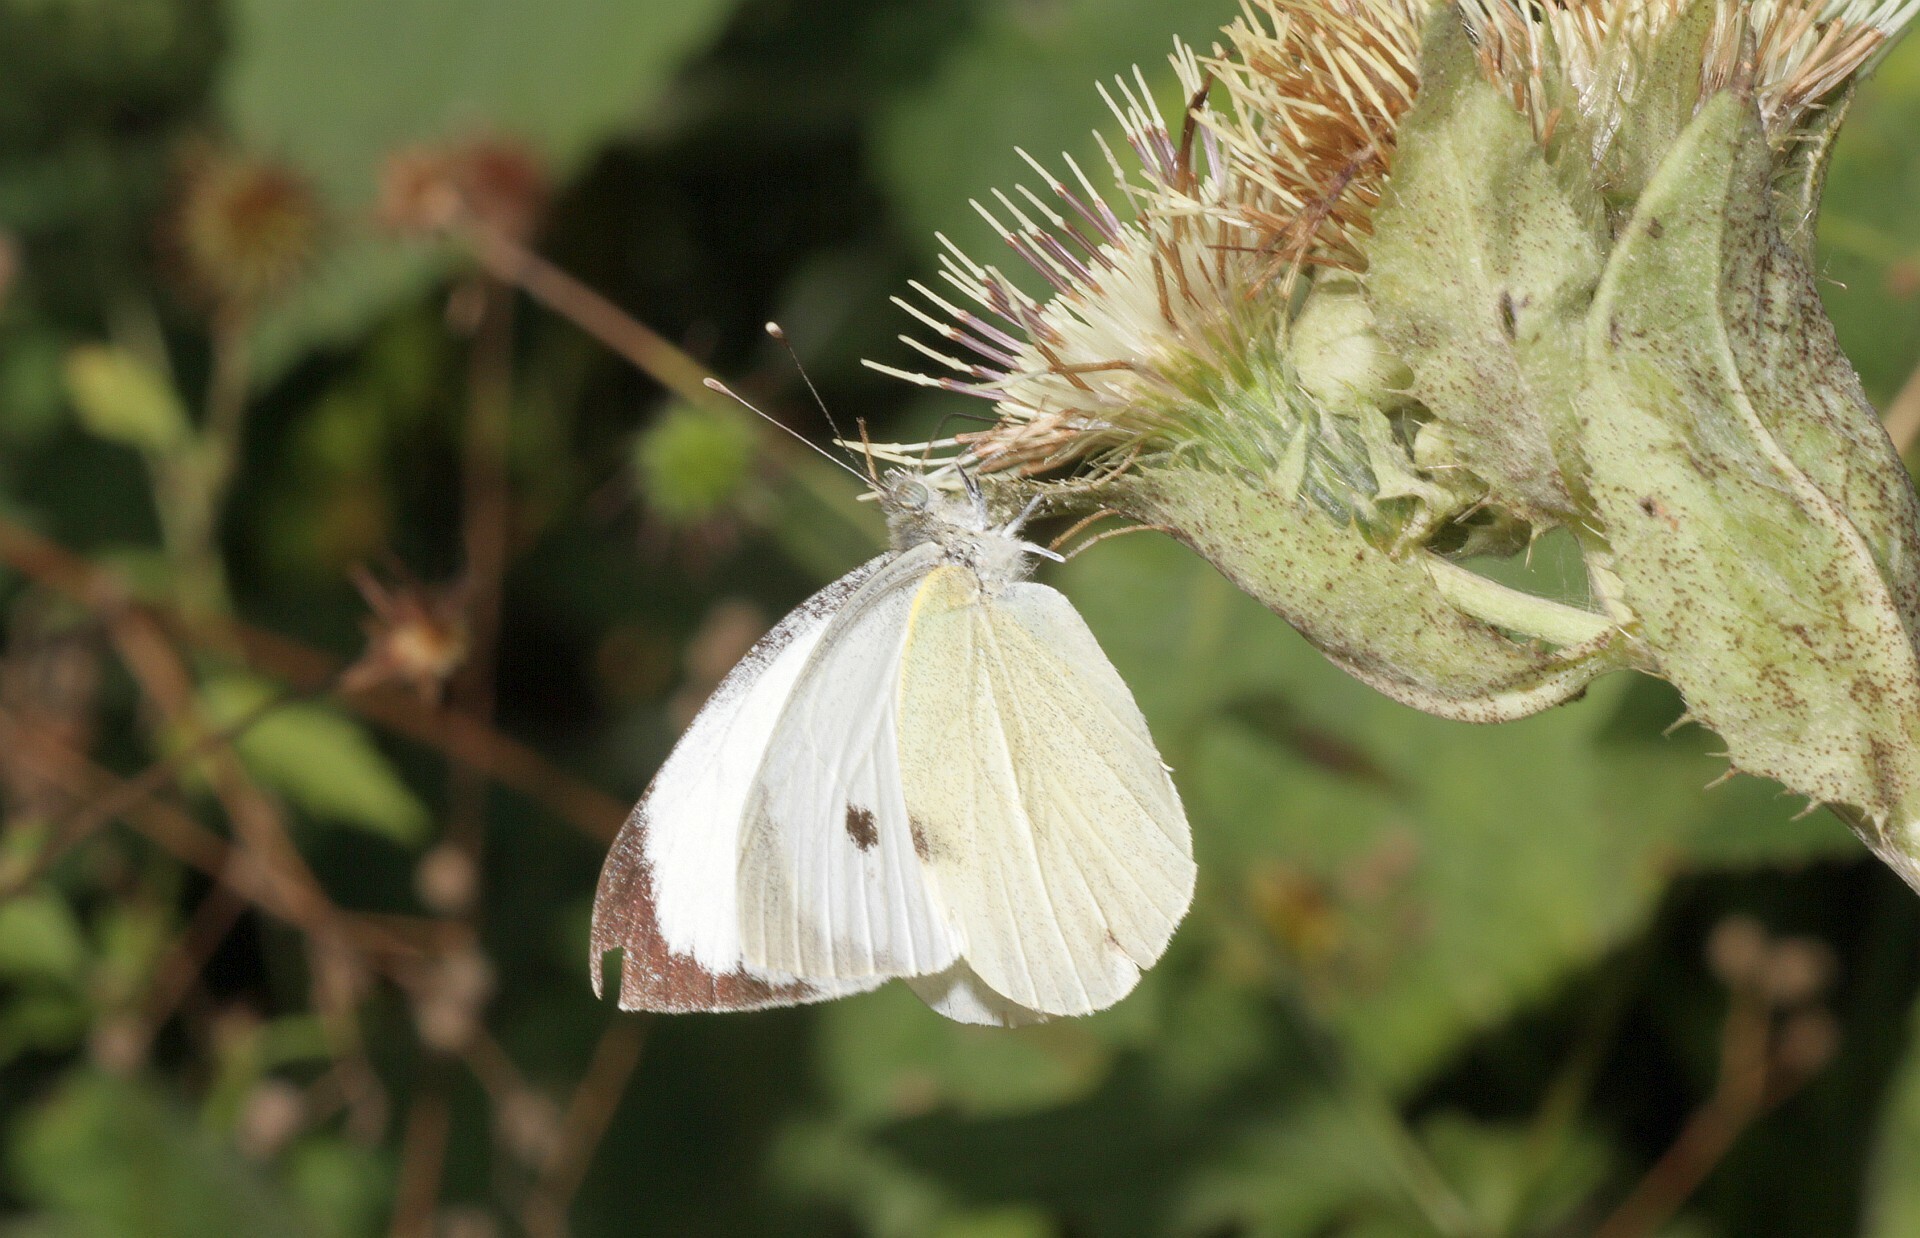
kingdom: Animalia
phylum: Arthropoda
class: Insecta
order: Lepidoptera
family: Pieridae
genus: Pieris
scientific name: Pieris brassicae
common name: Large white
